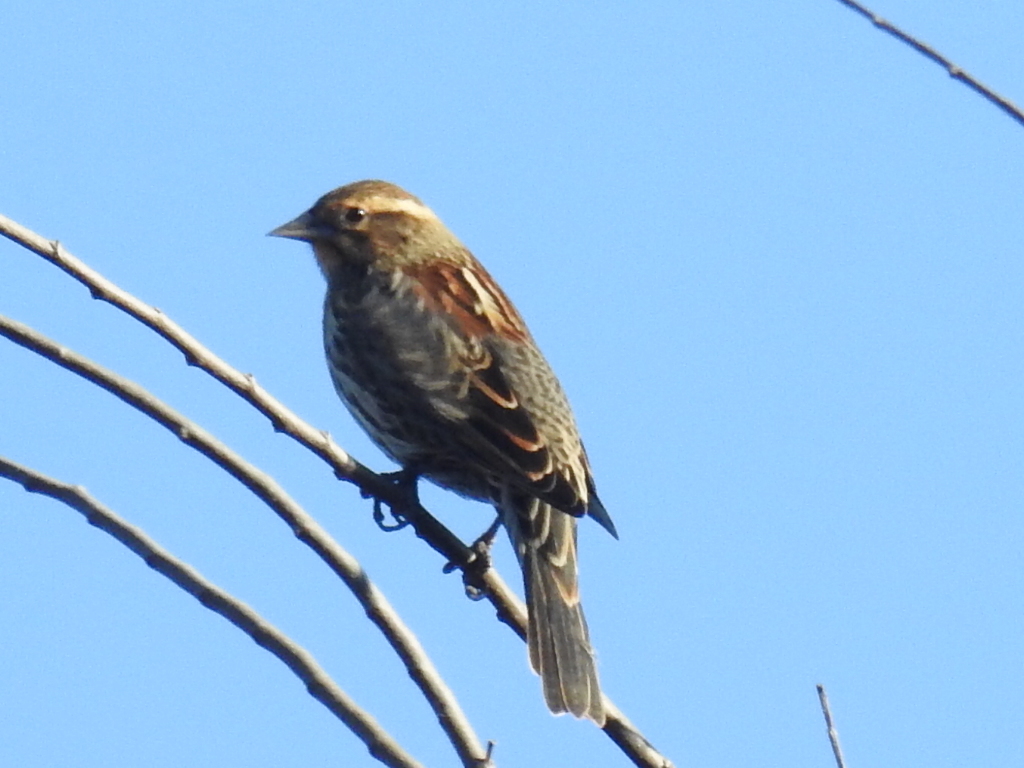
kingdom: Animalia
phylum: Chordata
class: Aves
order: Passeriformes
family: Icteridae
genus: Agelaius
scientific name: Agelaius phoeniceus
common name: Red-winged blackbird
